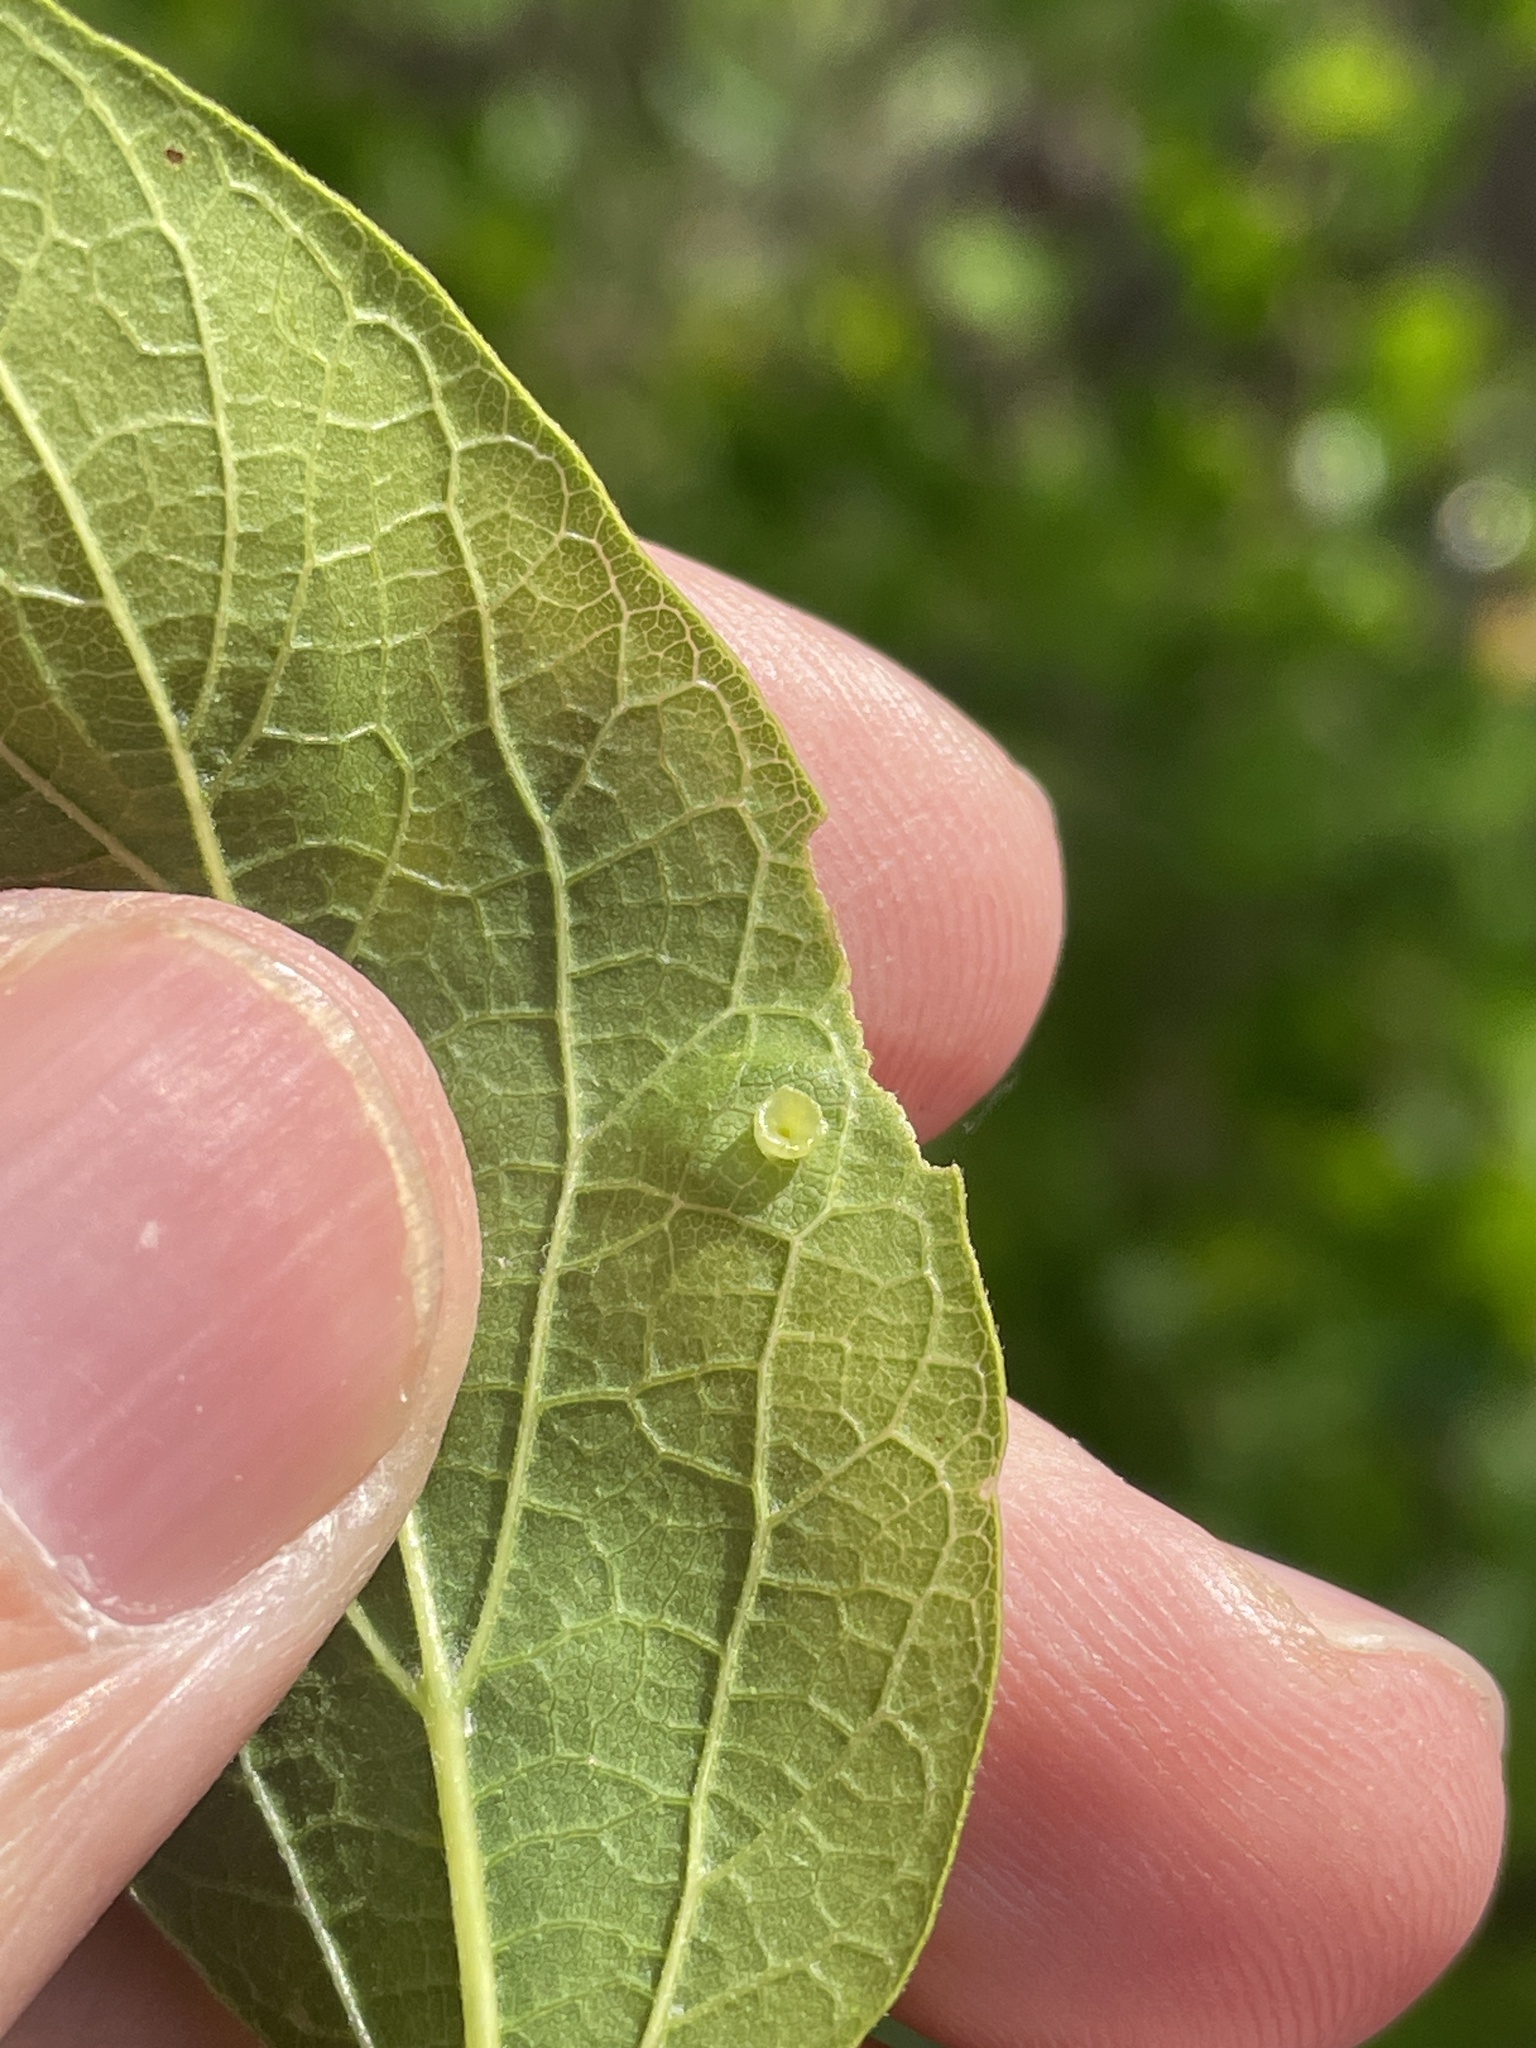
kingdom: Animalia
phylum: Arthropoda
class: Insecta
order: Hemiptera
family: Aphalaridae
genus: Pachypsylla
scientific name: Pachypsylla celtidisasterisca
